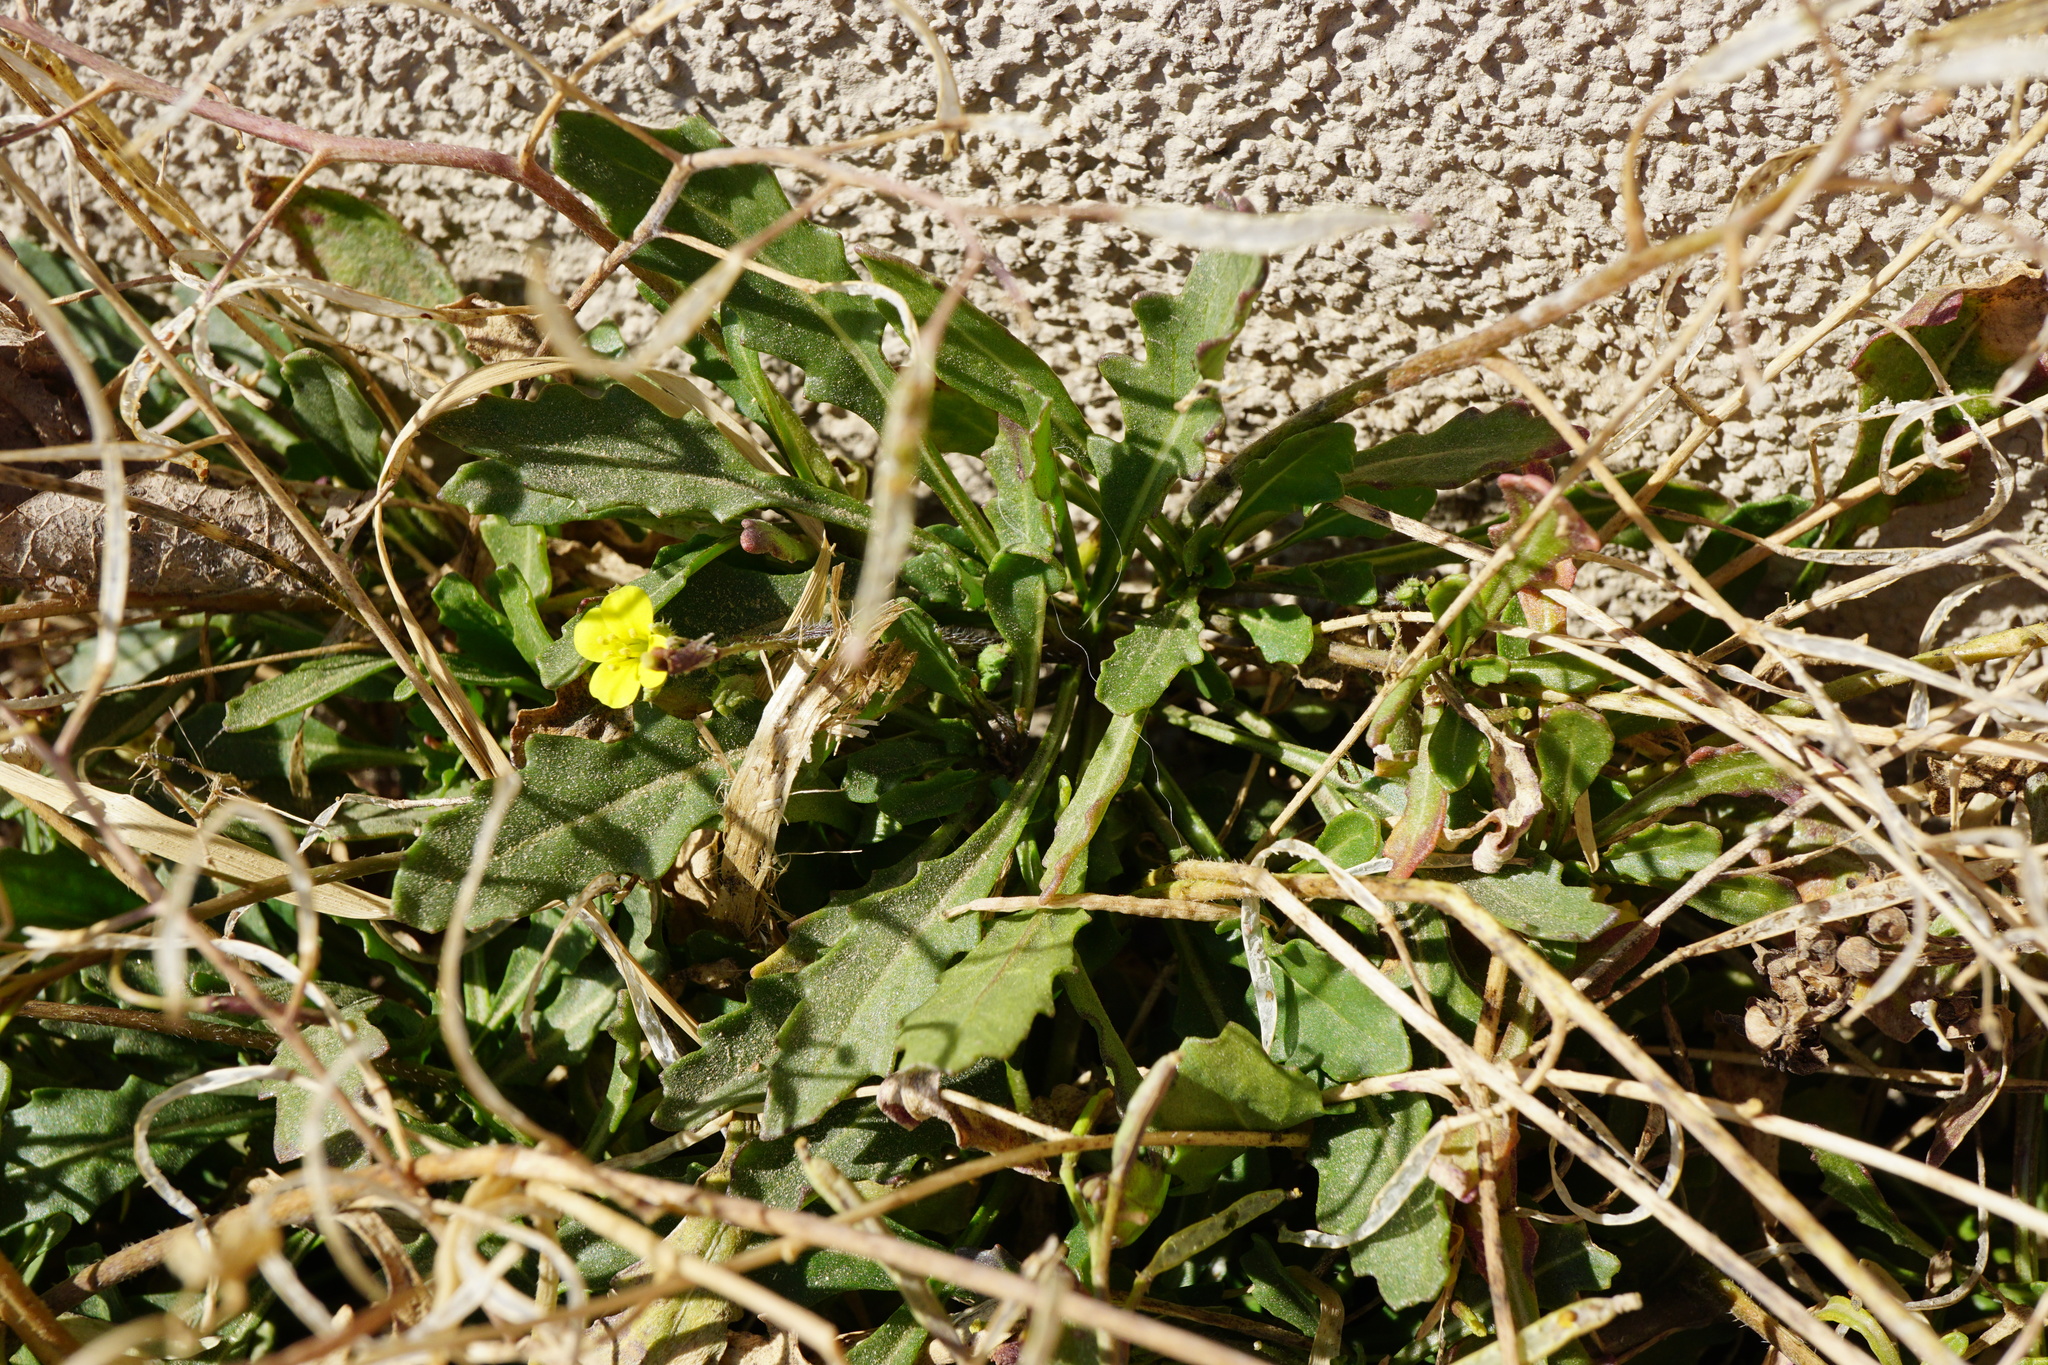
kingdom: Plantae
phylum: Tracheophyta
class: Magnoliopsida
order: Brassicales
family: Brassicaceae
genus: Diplotaxis
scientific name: Diplotaxis muralis
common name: Annual wall-rocket
